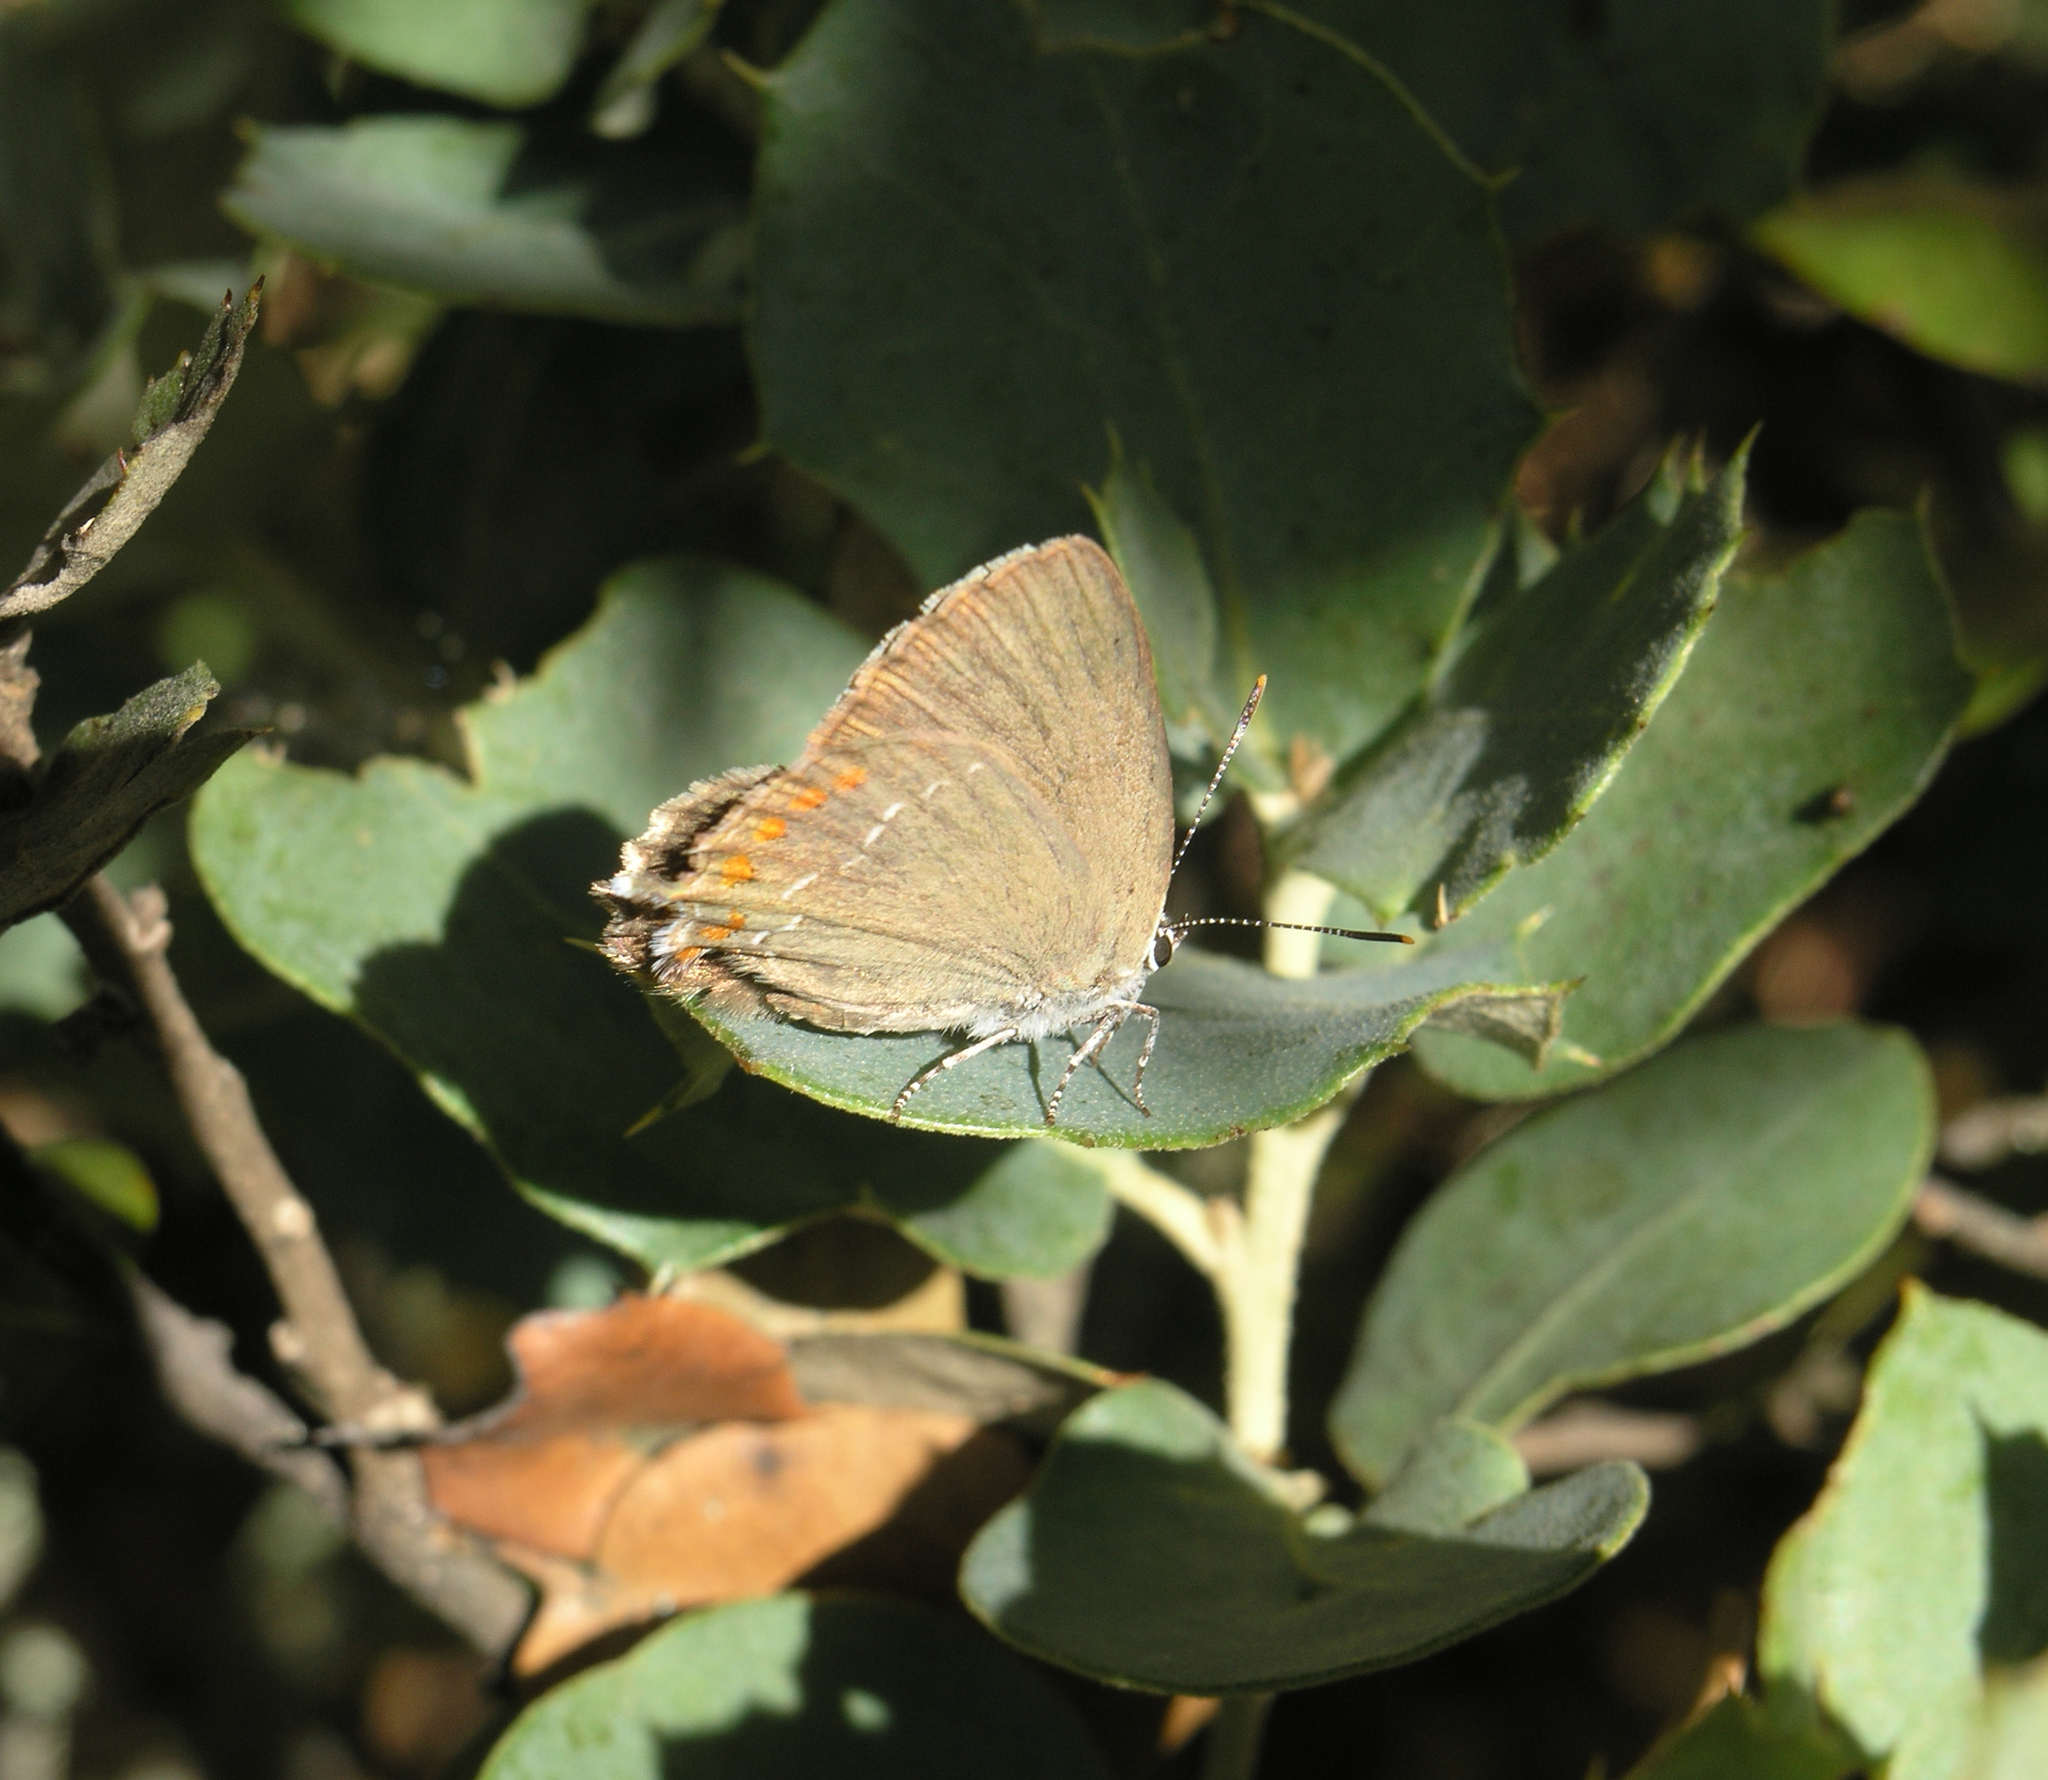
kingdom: Animalia
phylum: Arthropoda
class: Insecta
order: Lepidoptera
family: Lycaenidae
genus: Fixsenia
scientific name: Fixsenia esculi
